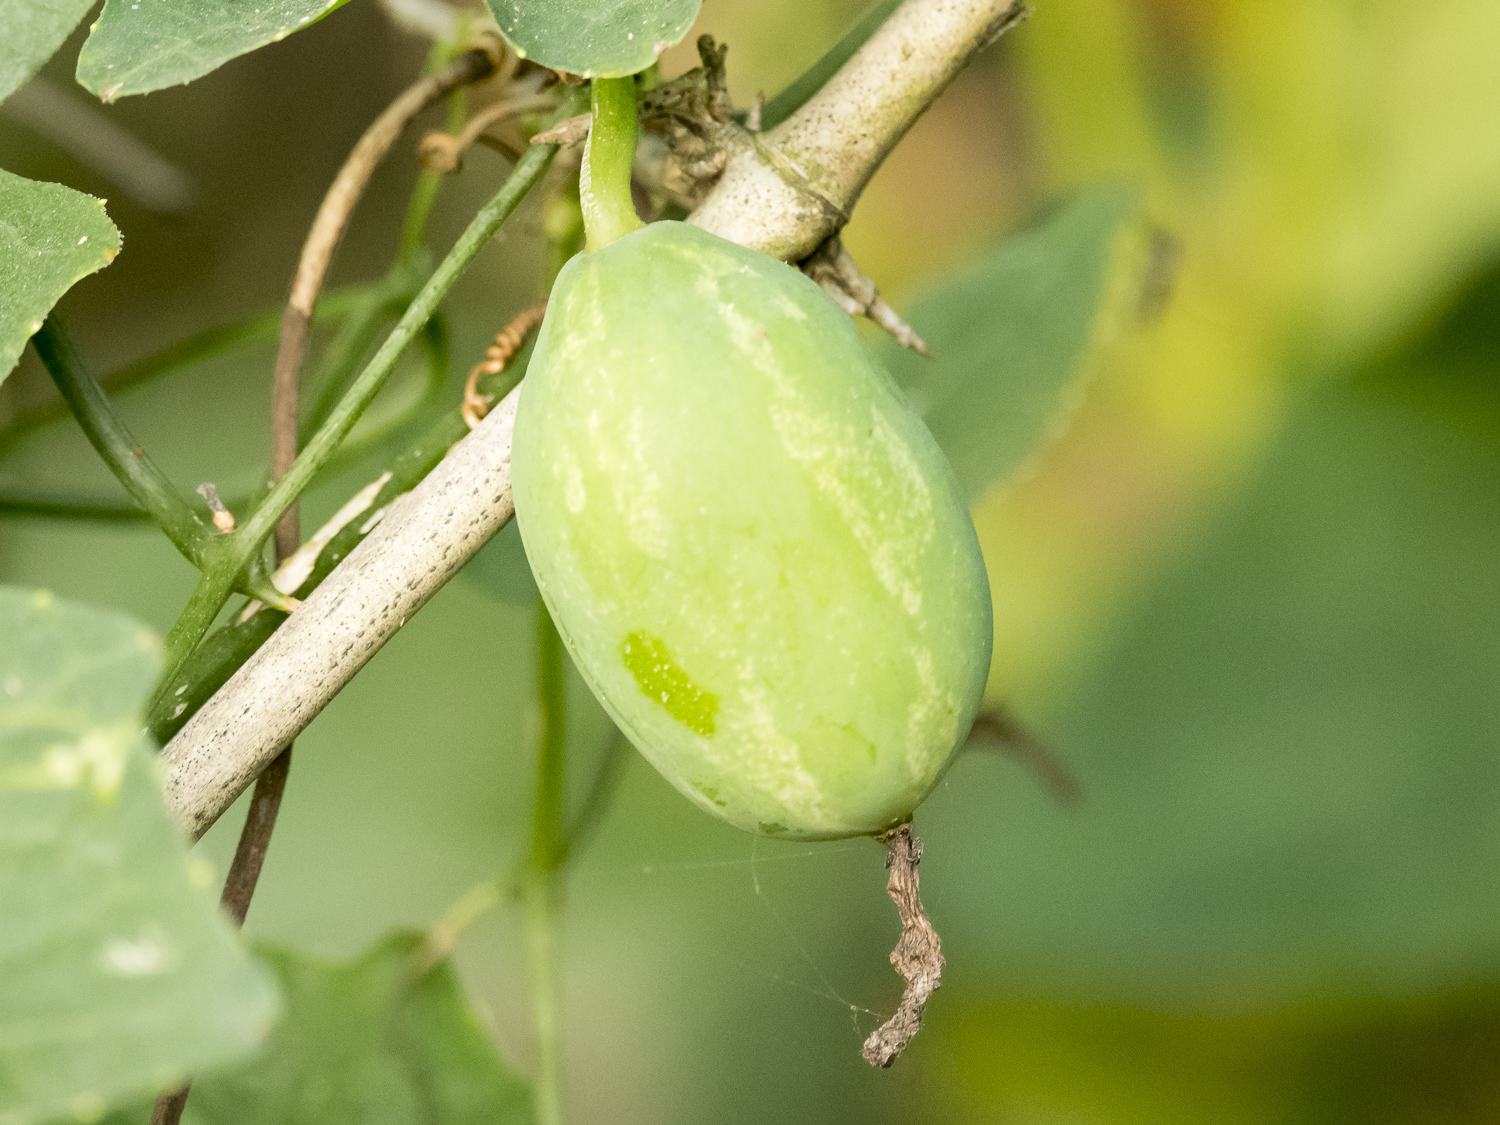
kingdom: Plantae
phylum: Tracheophyta
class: Magnoliopsida
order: Cucurbitales
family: Cucurbitaceae
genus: Coccinia
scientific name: Coccinia grandis
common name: Ivy gourd
